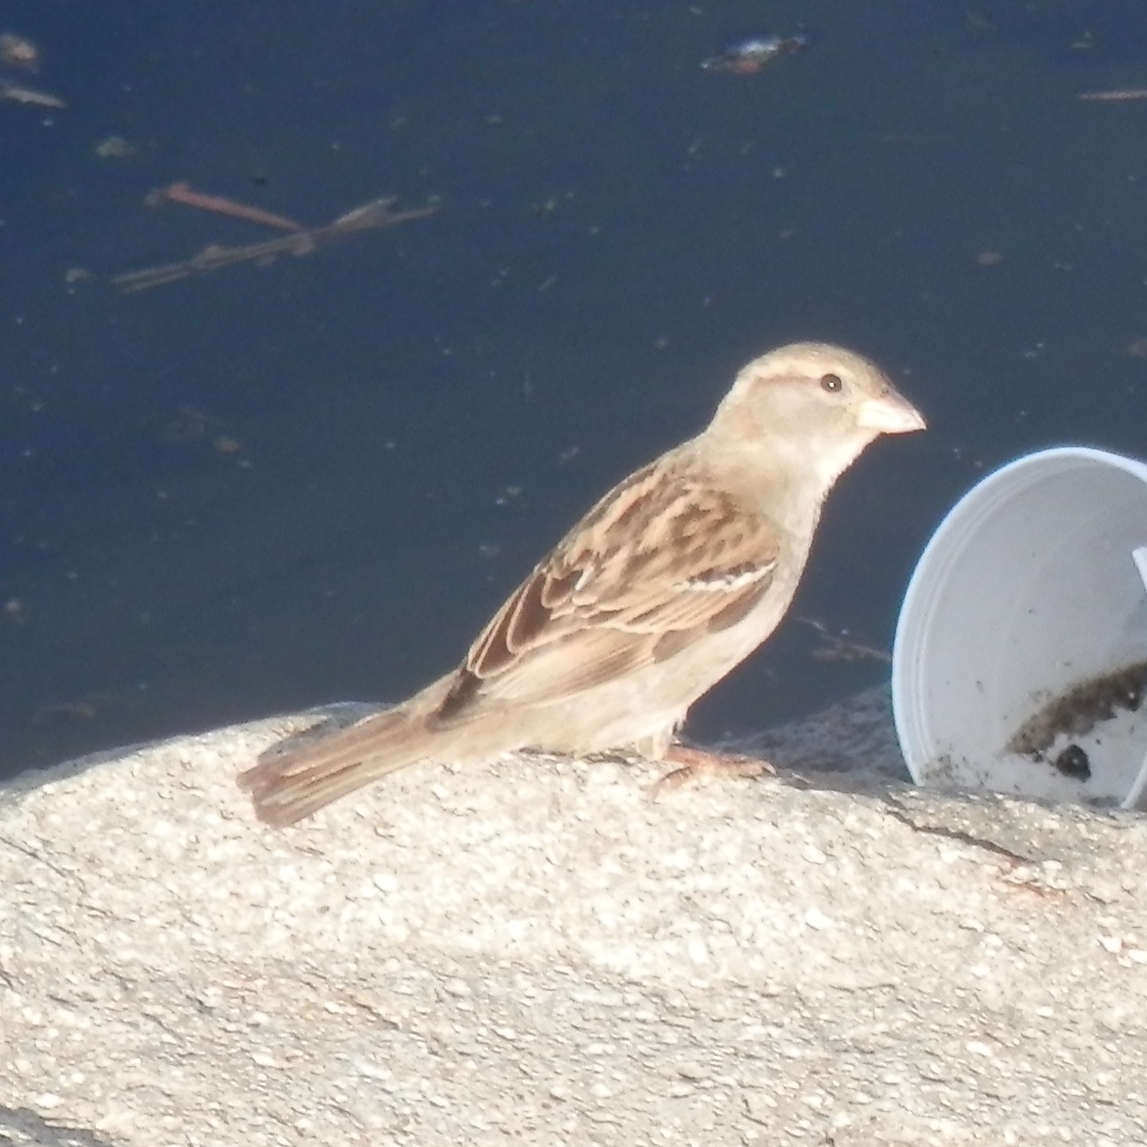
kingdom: Animalia
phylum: Chordata
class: Aves
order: Passeriformes
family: Passeridae
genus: Passer
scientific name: Passer domesticus
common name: House sparrow
